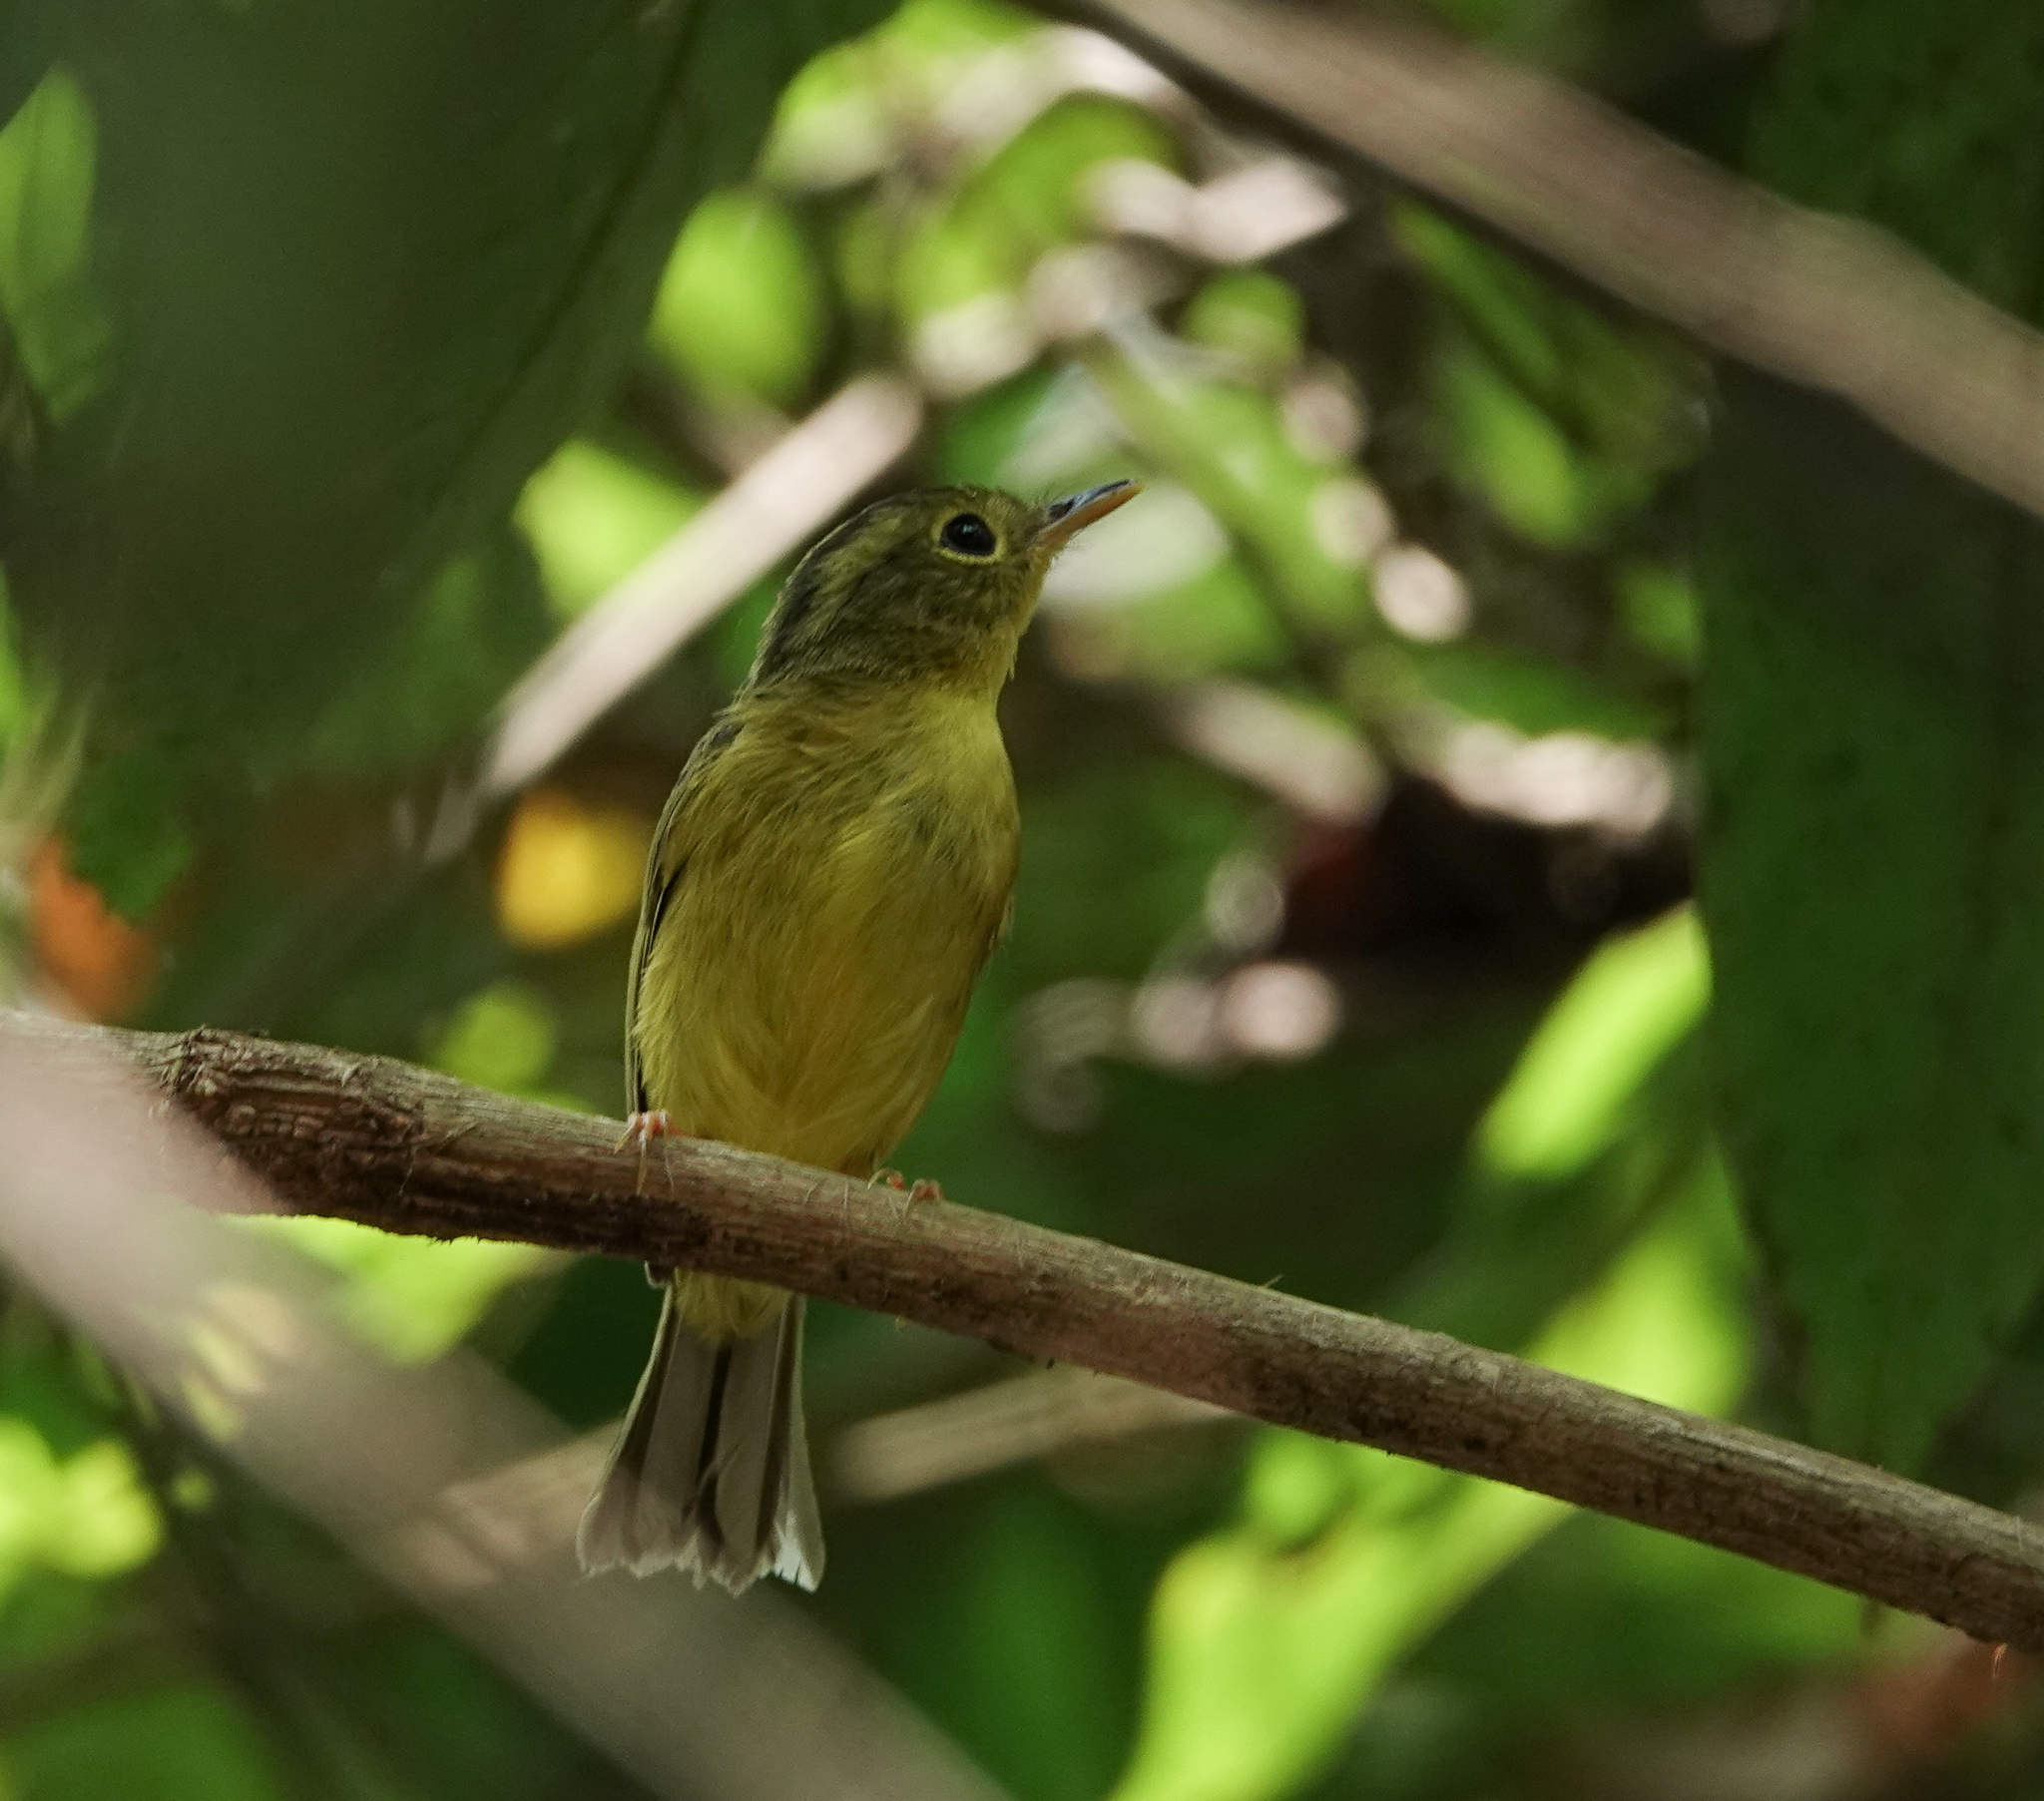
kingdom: Animalia
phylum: Chordata
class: Aves
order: Passeriformes
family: Phylloscopidae
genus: Seicercus
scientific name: Seicercus burkii
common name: Green-crowned warbler
